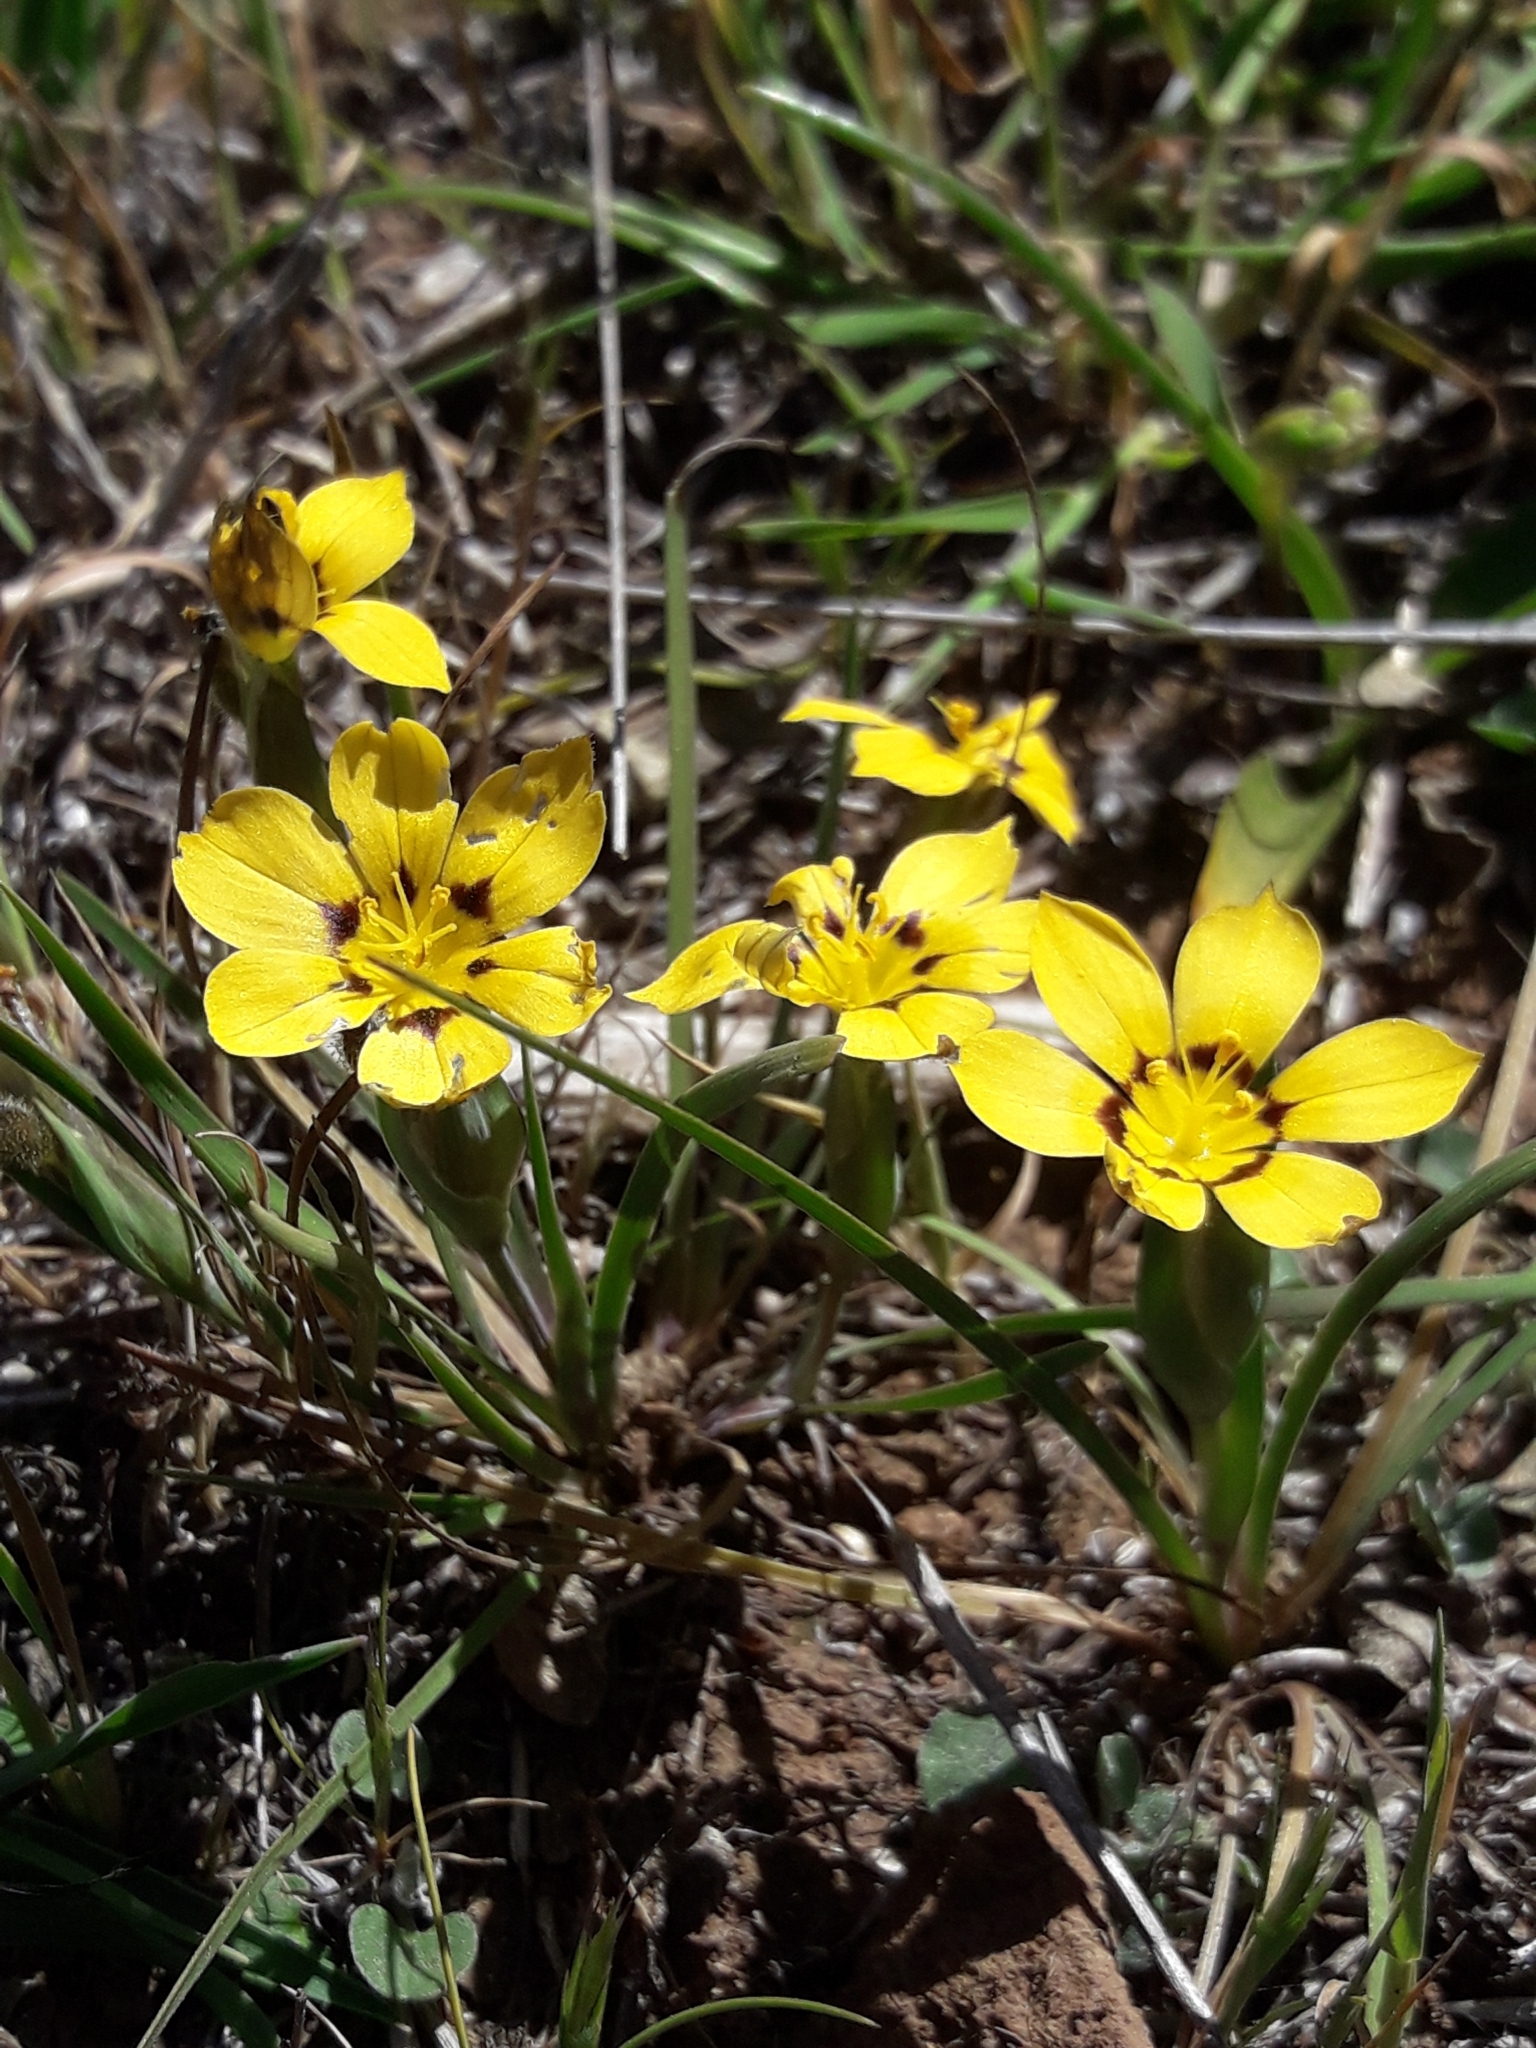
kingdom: Plantae
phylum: Tracheophyta
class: Liliopsida
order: Asparagales
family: Iridaceae
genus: Sisyrinchium
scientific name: Sisyrinchium graminifolium
